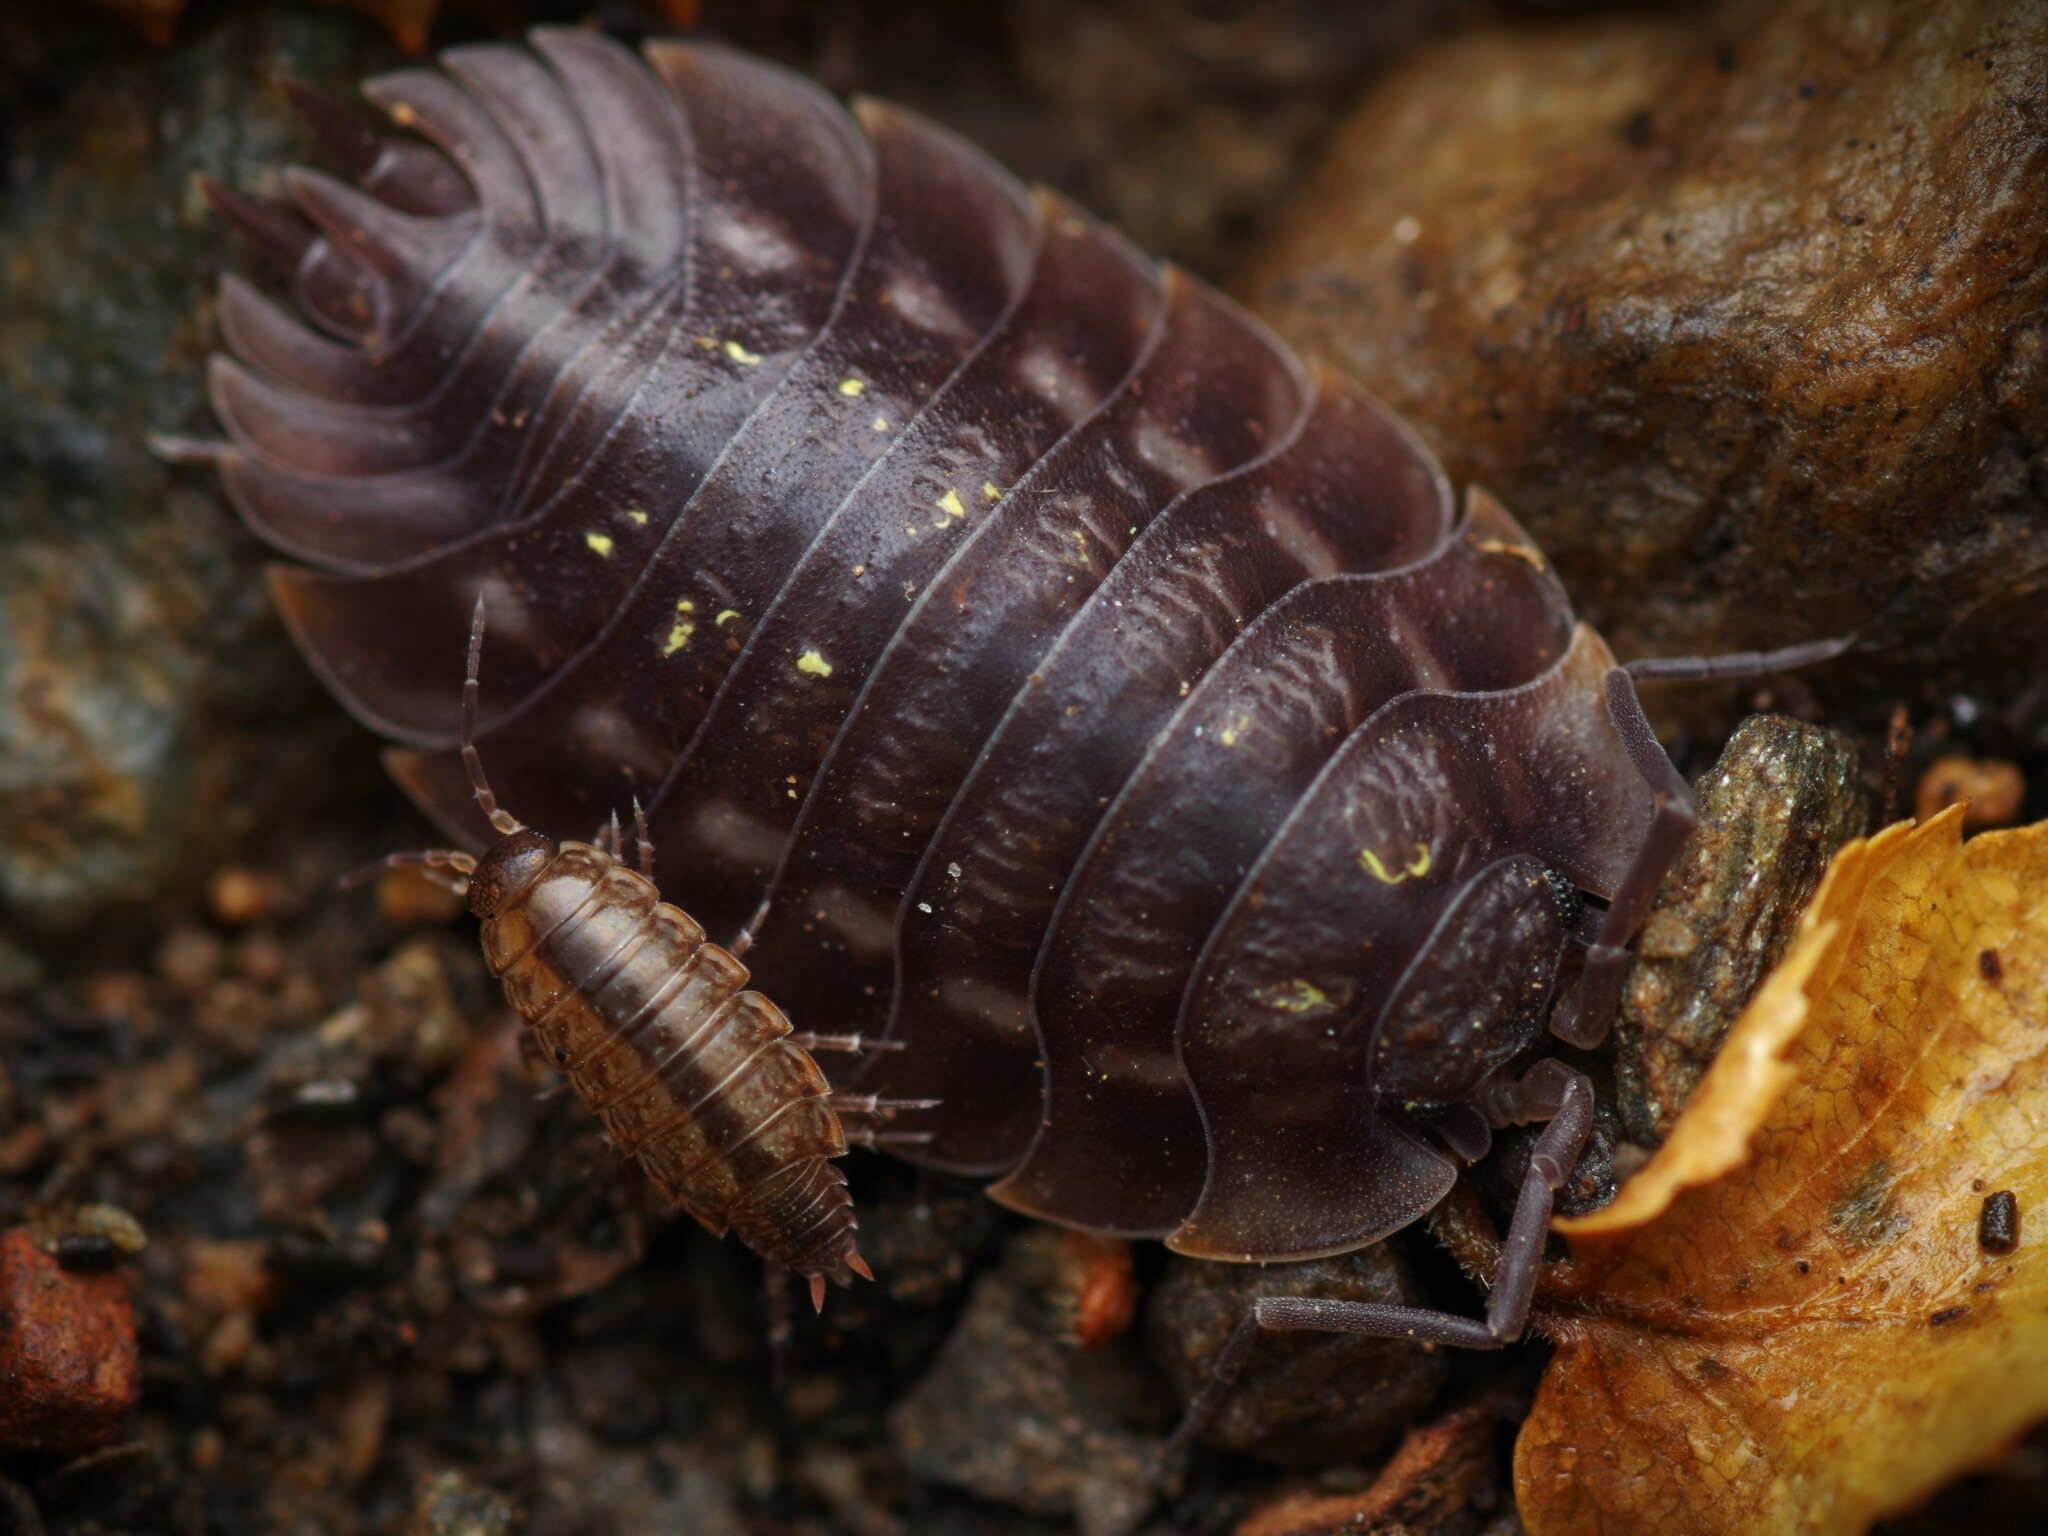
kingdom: Animalia
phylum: Arthropoda
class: Malacostraca
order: Isopoda
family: Oniscidae
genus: Oniscus
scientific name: Oniscus asellus
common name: Common shiny woodlouse
